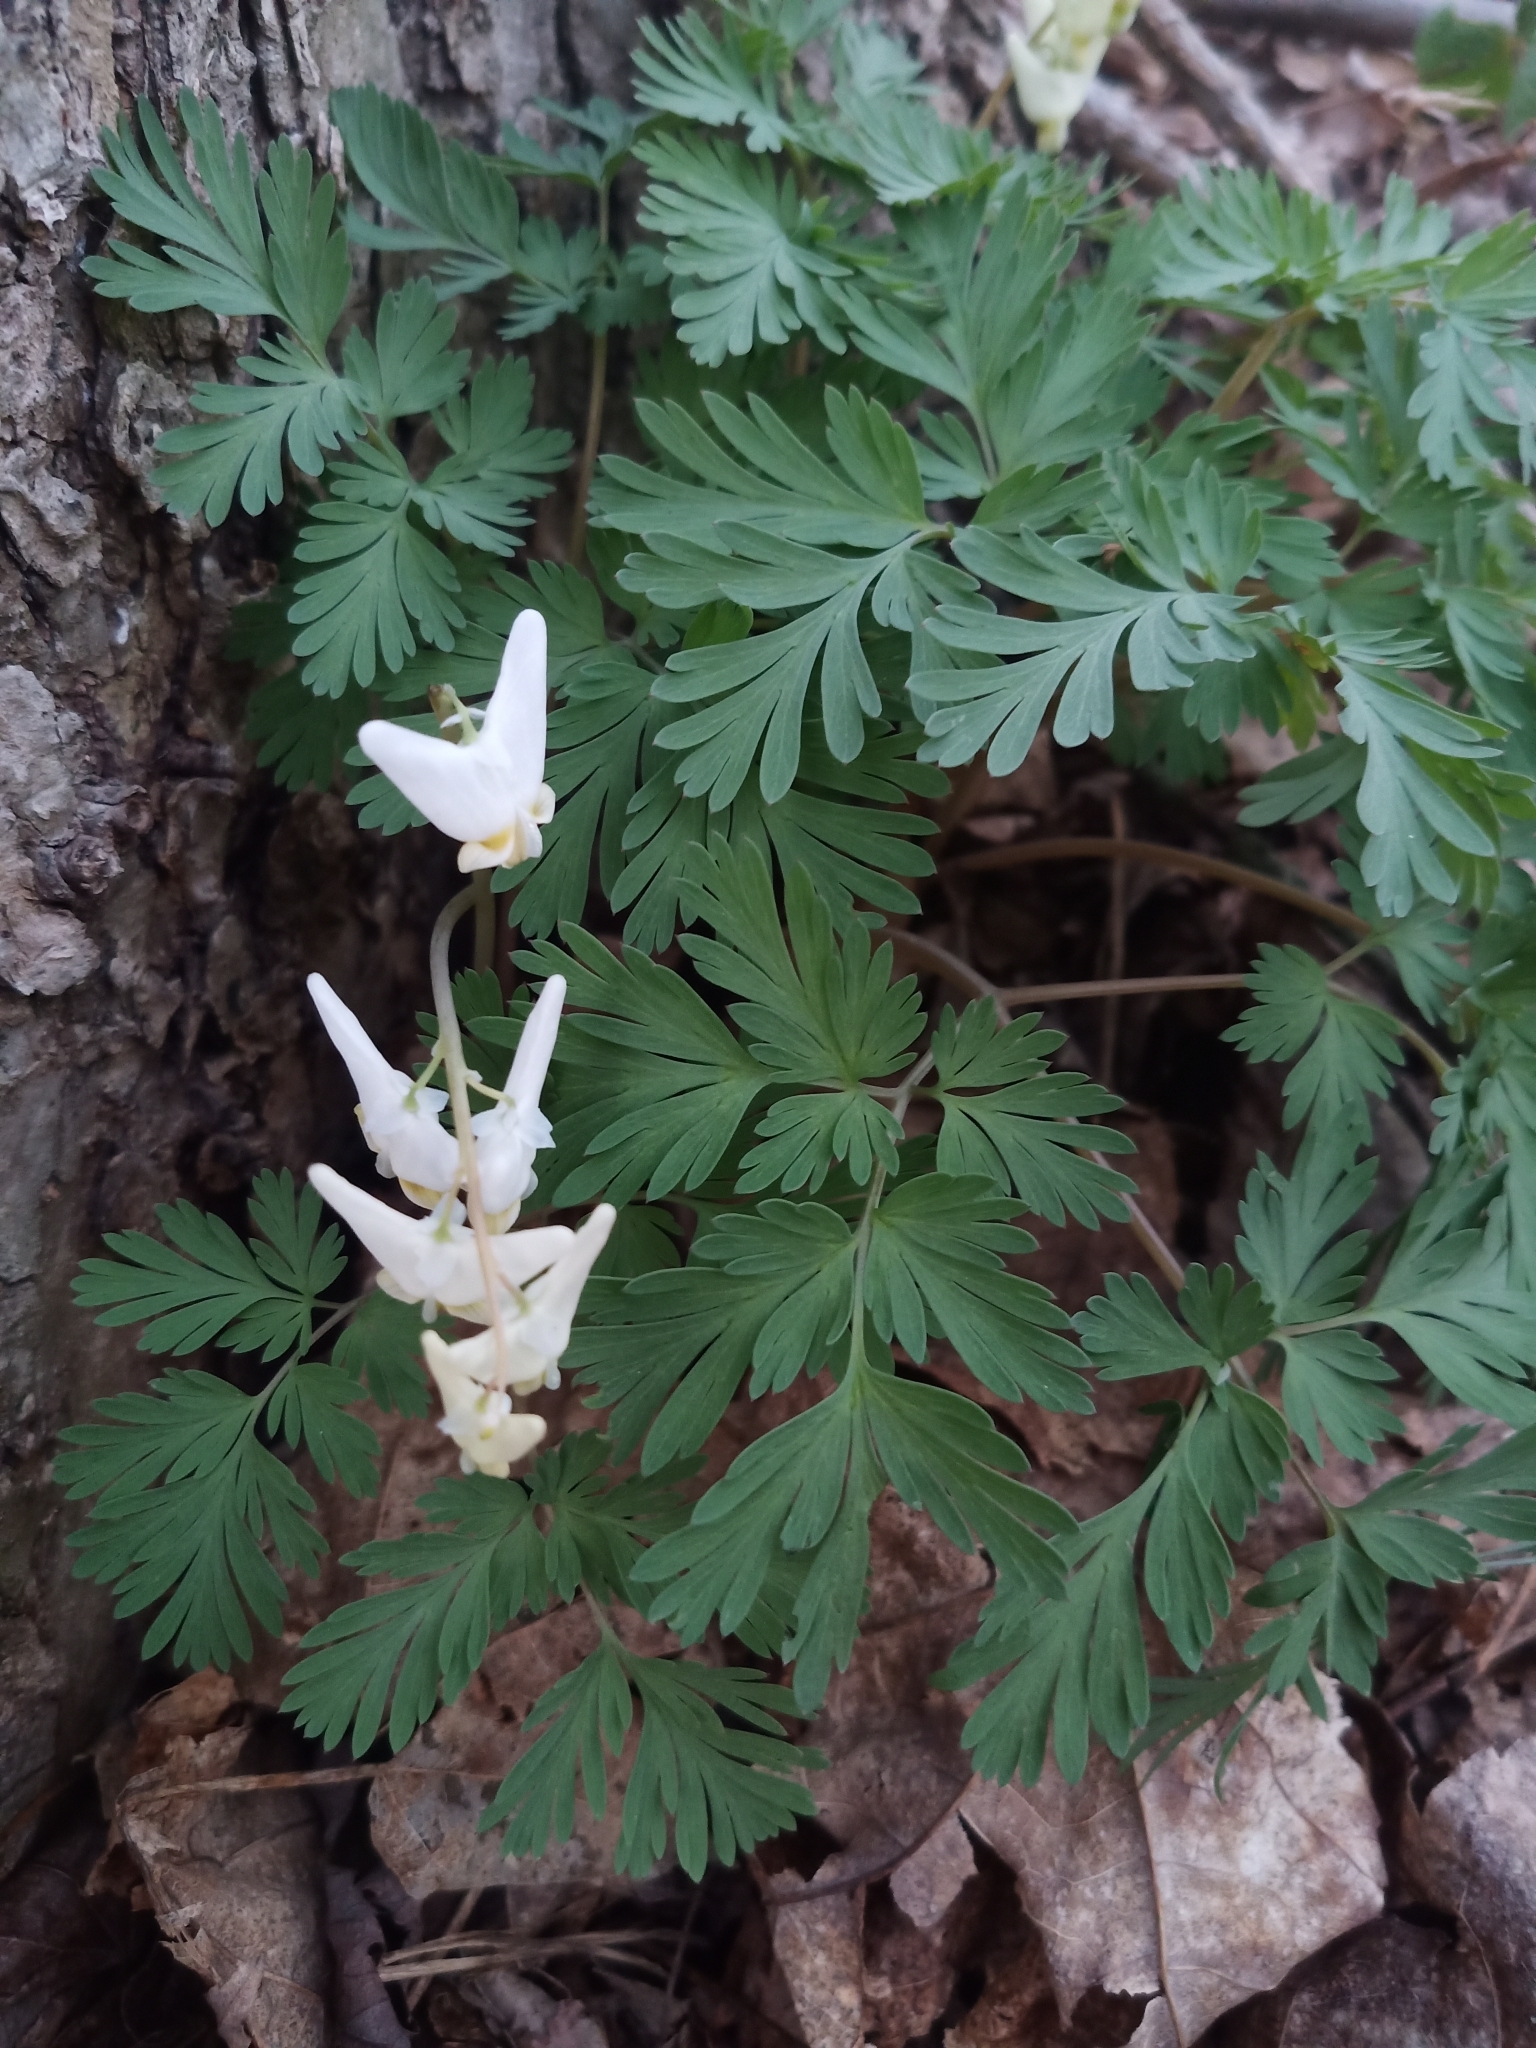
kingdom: Plantae
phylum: Tracheophyta
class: Magnoliopsida
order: Ranunculales
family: Papaveraceae
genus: Dicentra
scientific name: Dicentra cucullaria
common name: Dutchman's breeches
